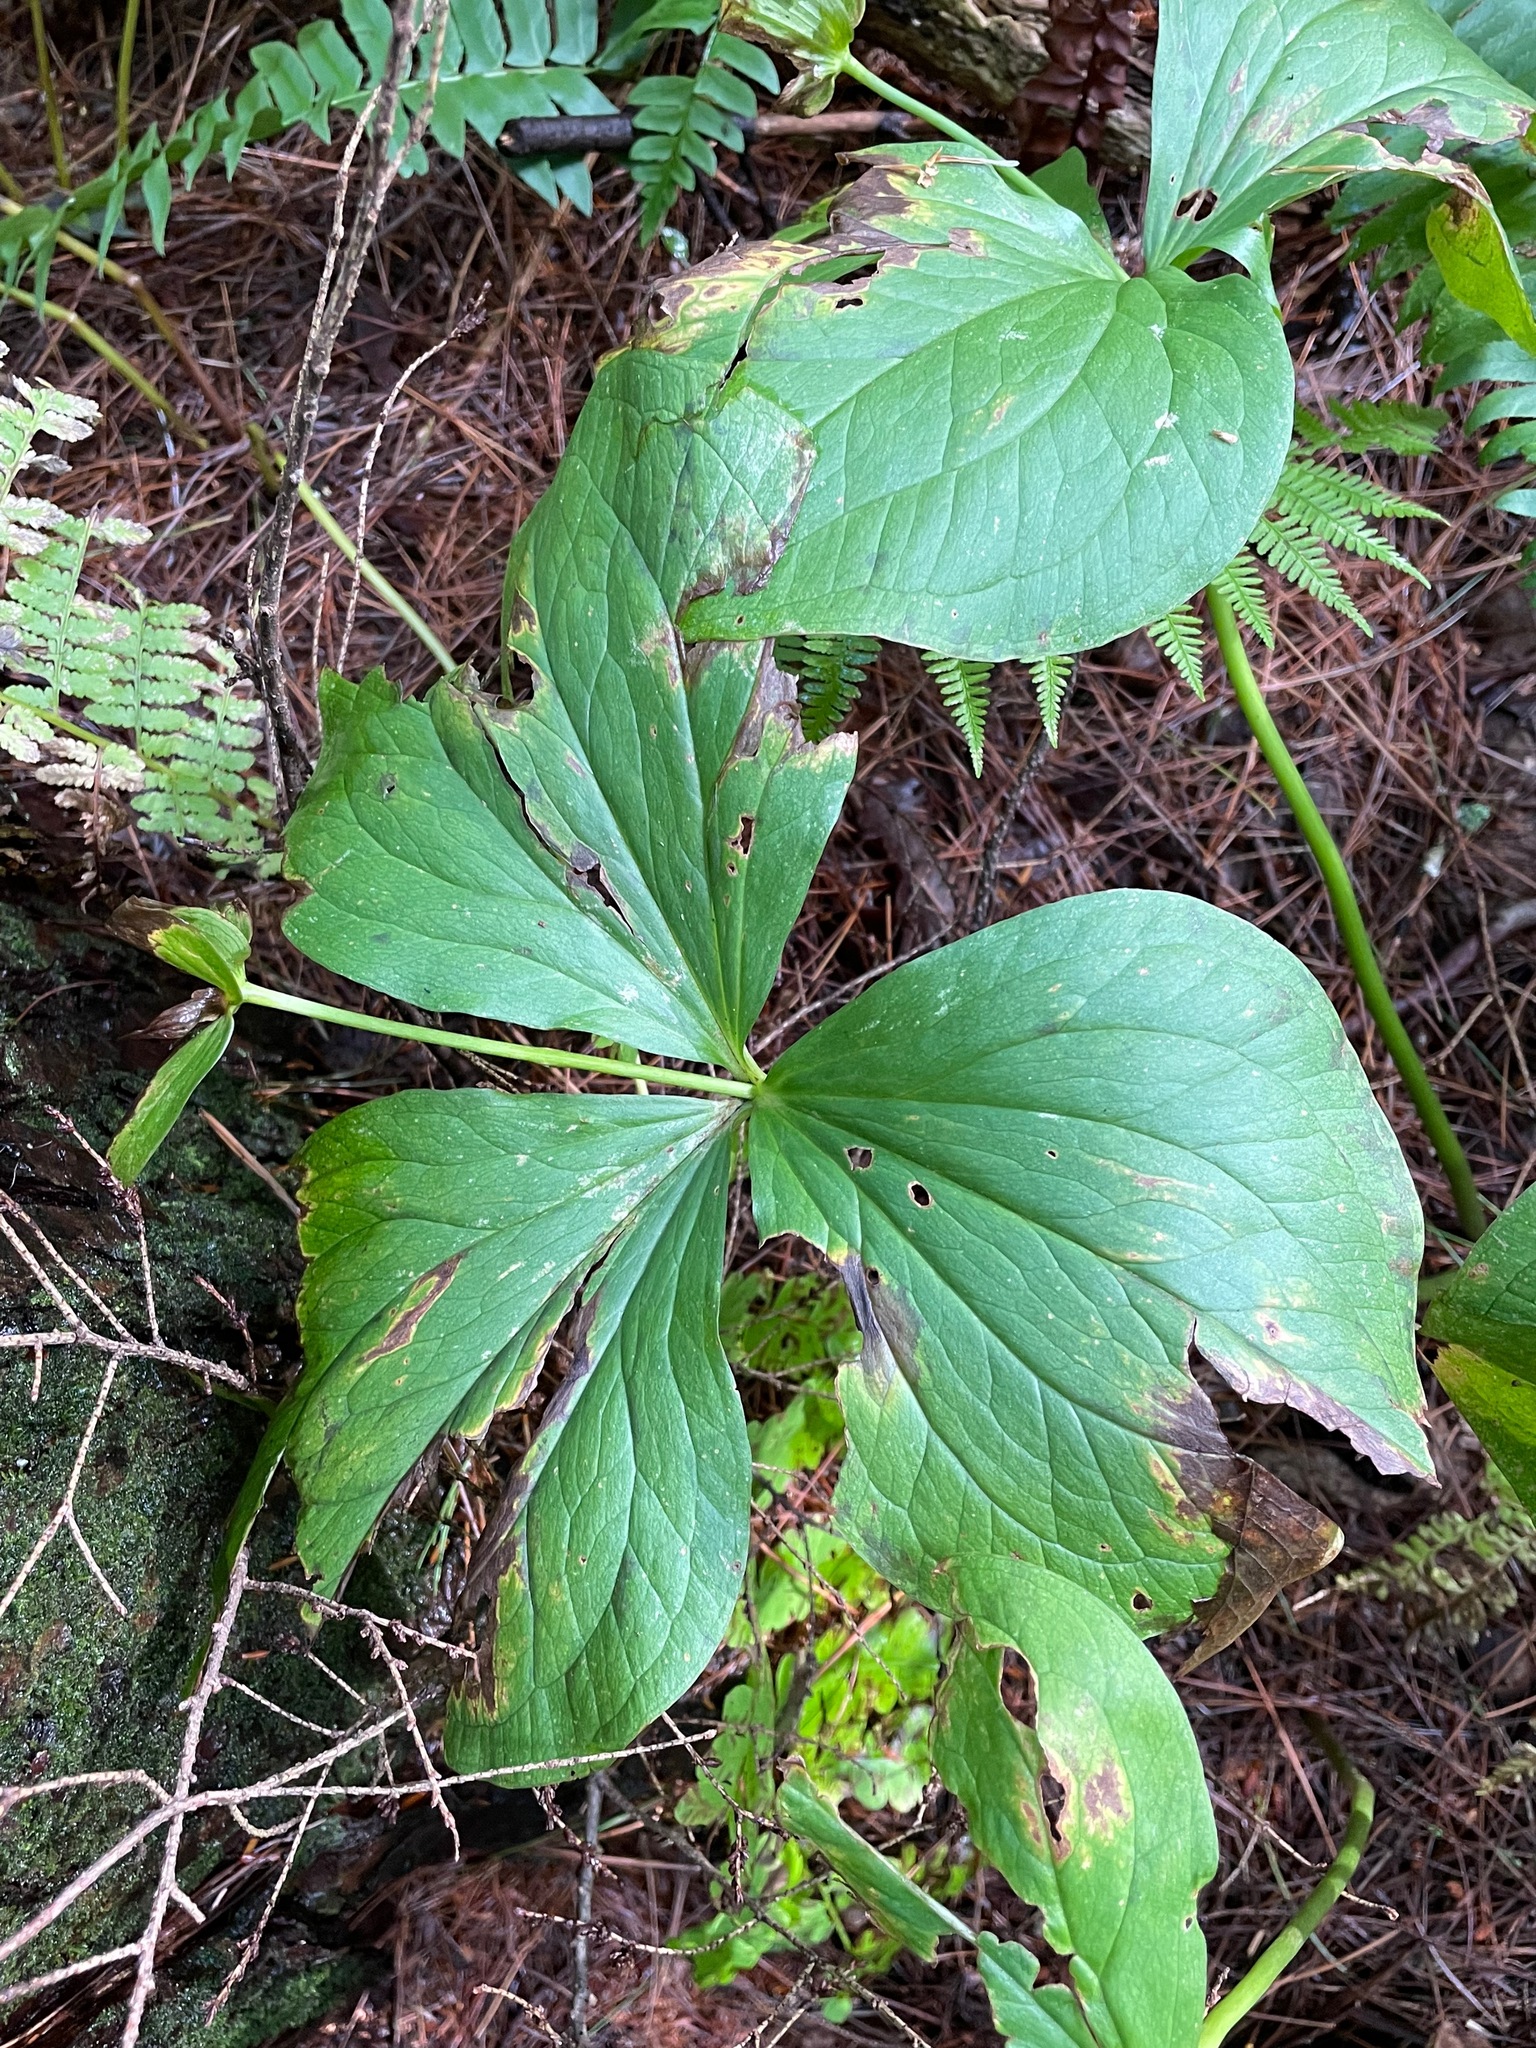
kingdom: Plantae
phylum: Tracheophyta
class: Liliopsida
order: Liliales
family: Melanthiaceae
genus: Trillium
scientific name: Trillium grandiflorum
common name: Great white trillium
